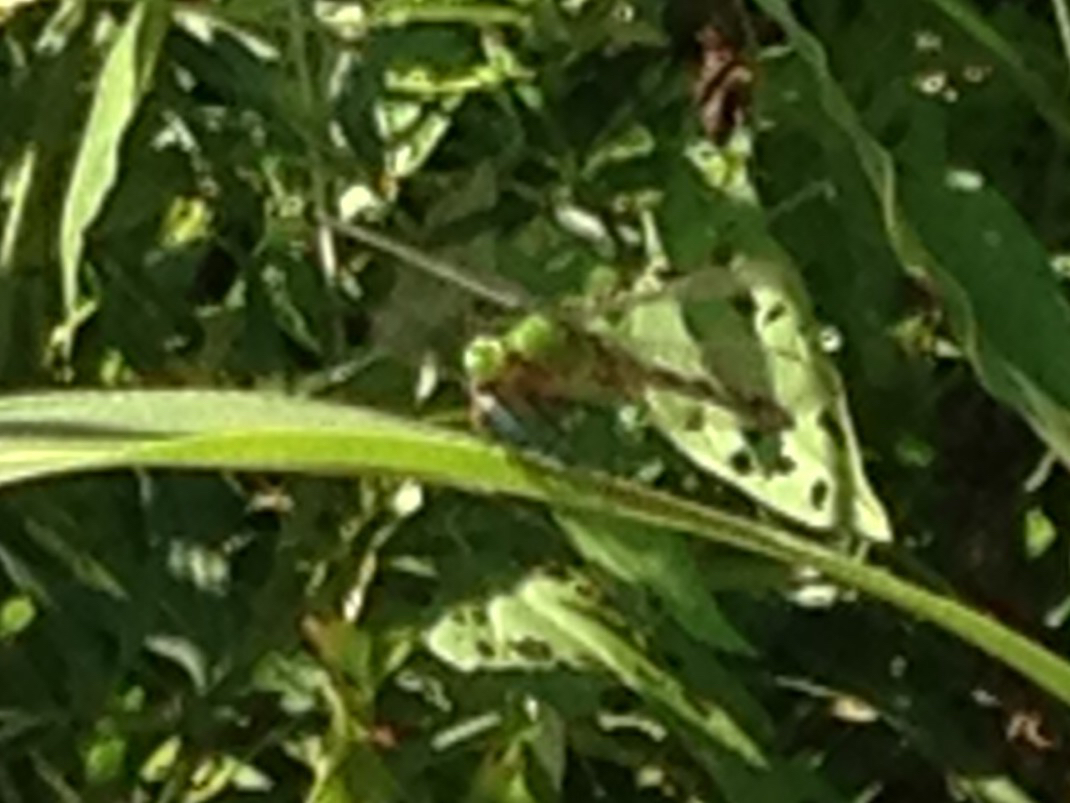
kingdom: Animalia
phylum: Arthropoda
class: Insecta
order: Odonata
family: Libellulidae
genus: Erythemis
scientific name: Erythemis simplicicollis
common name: Eastern pondhawk
